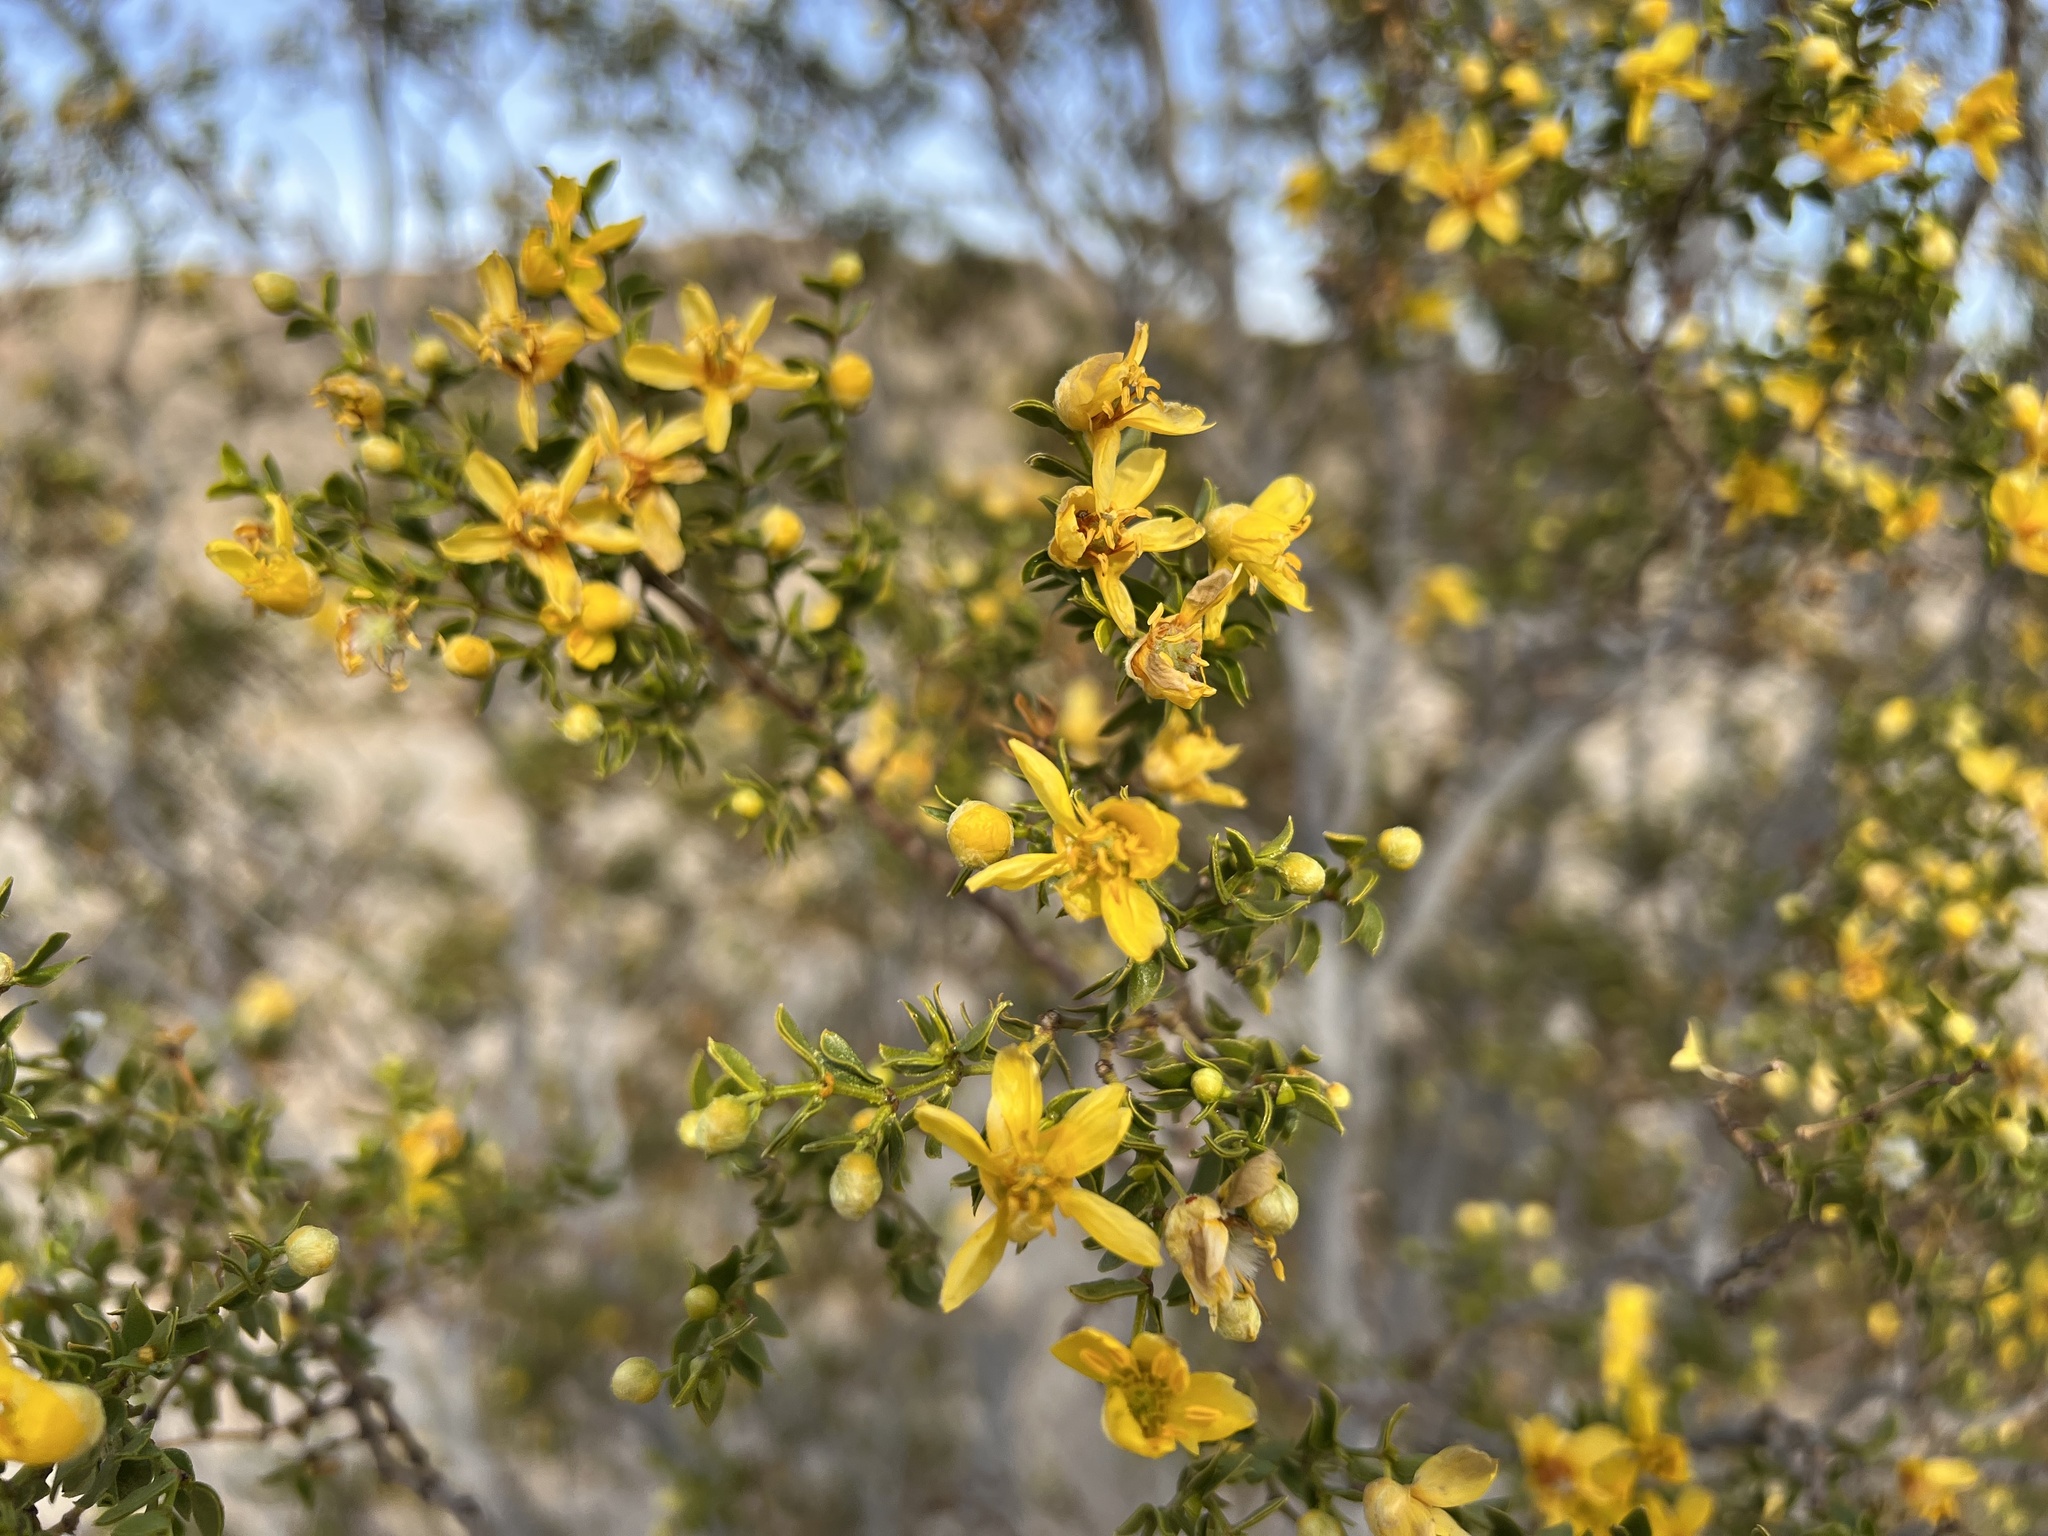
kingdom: Plantae
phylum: Tracheophyta
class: Magnoliopsida
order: Zygophyllales
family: Zygophyllaceae
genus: Larrea
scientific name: Larrea tridentata
